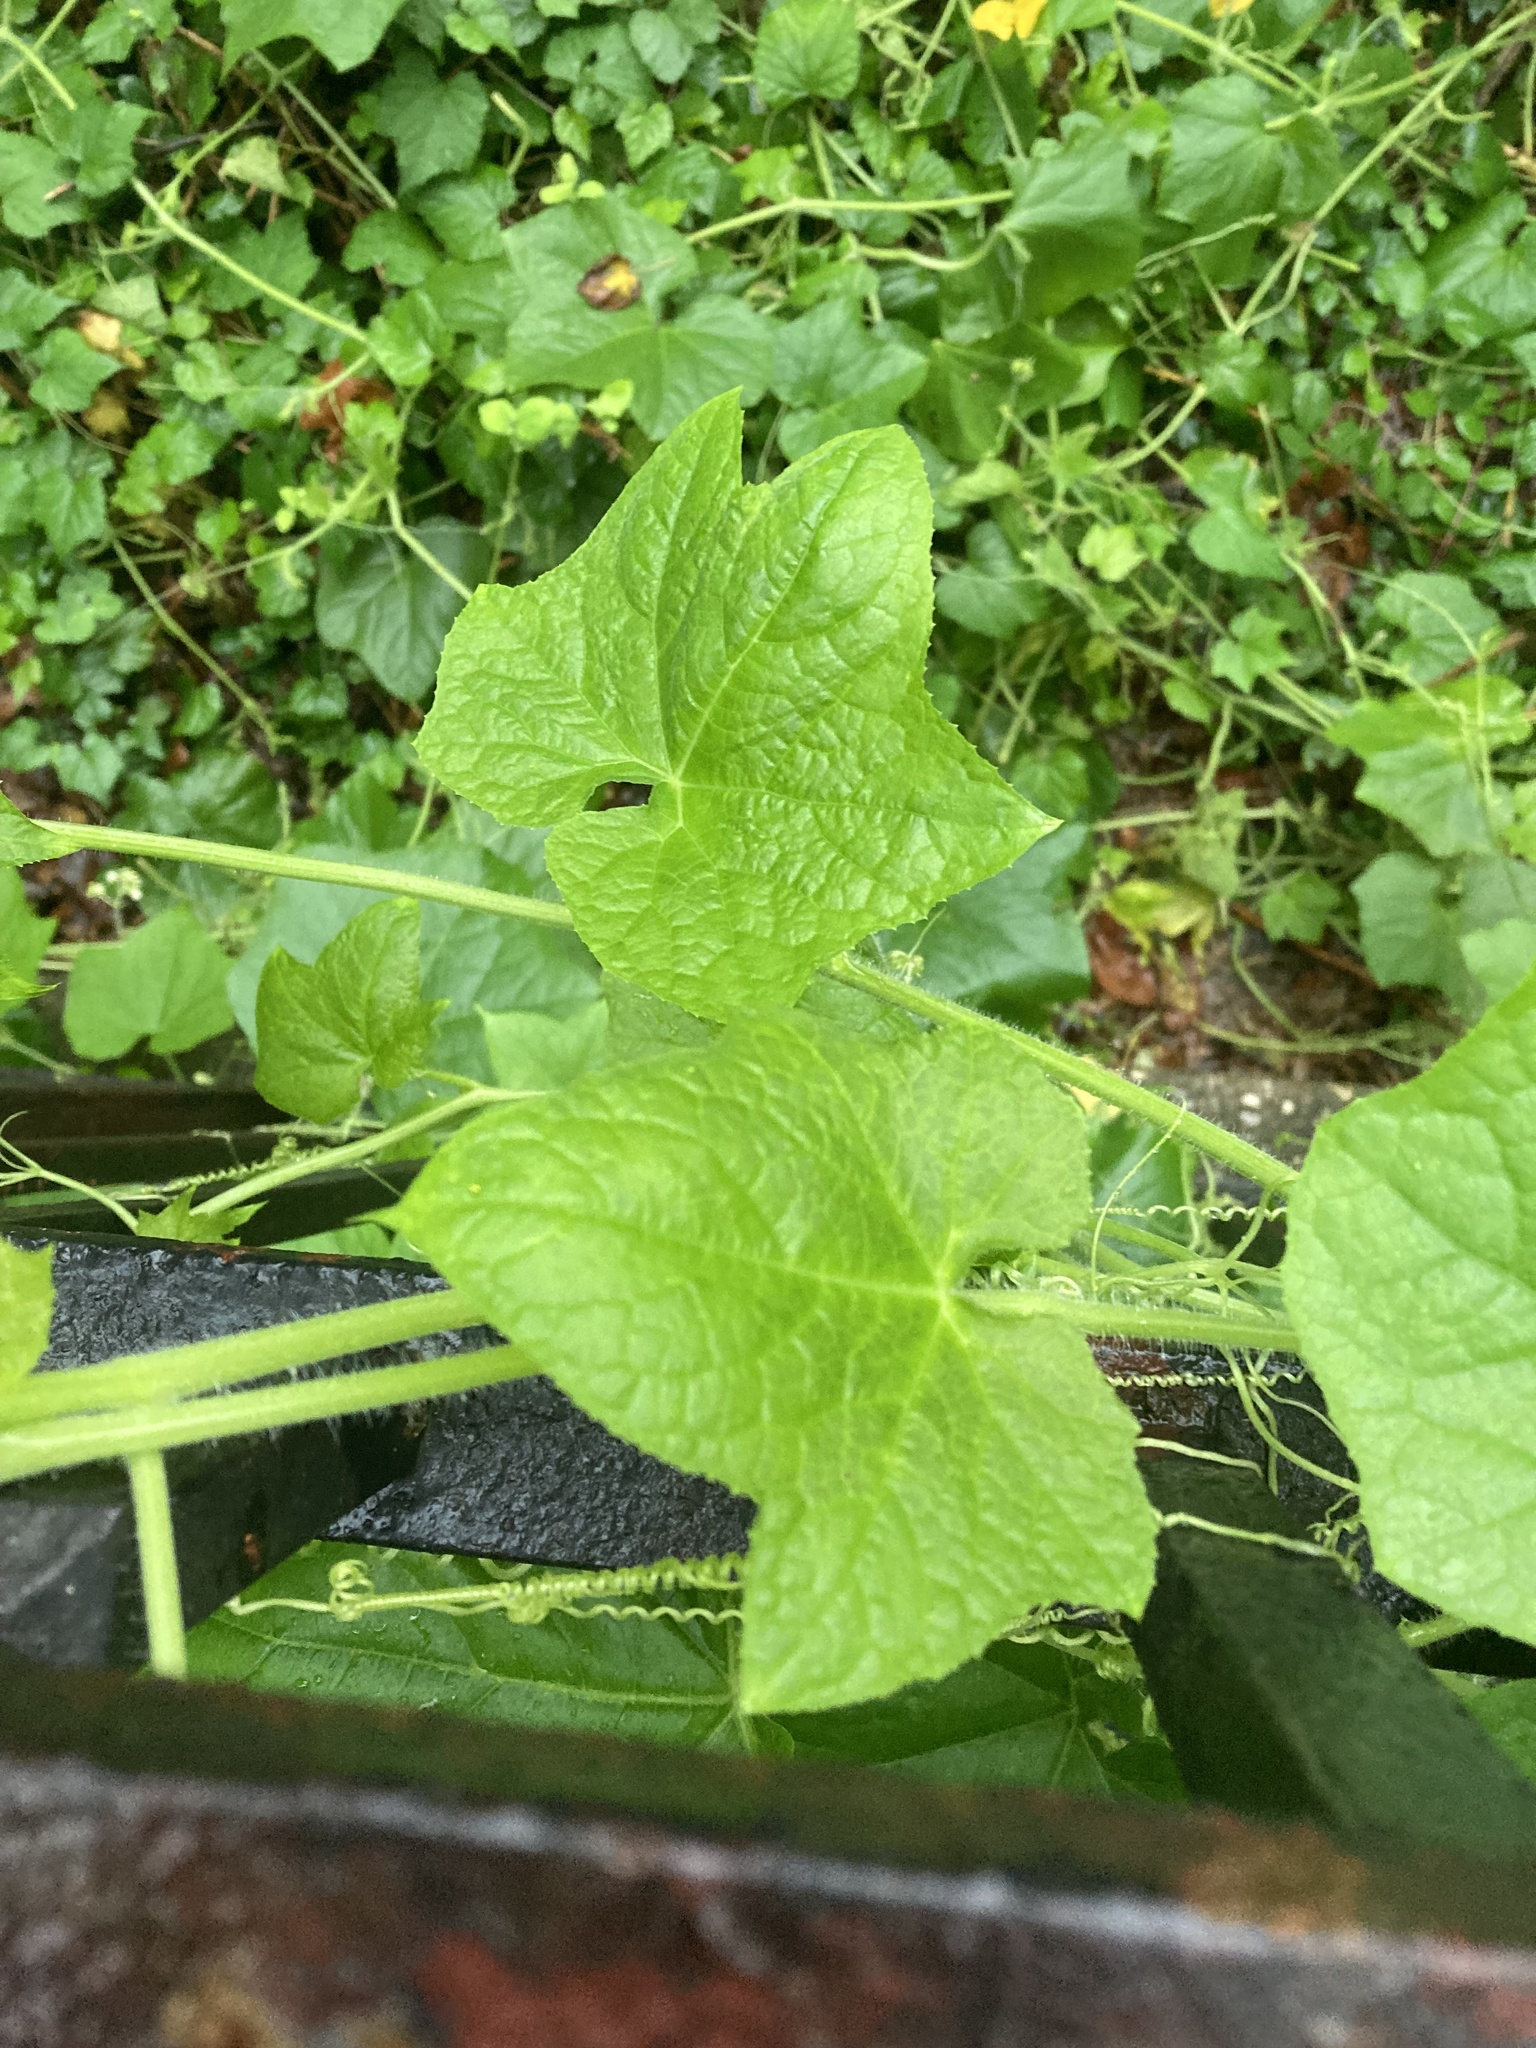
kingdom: Plantae
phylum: Tracheophyta
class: Magnoliopsida
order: Cucurbitales
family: Cucurbitaceae
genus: Sicyos
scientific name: Sicyos angulatus
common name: Angled burr cucumber
